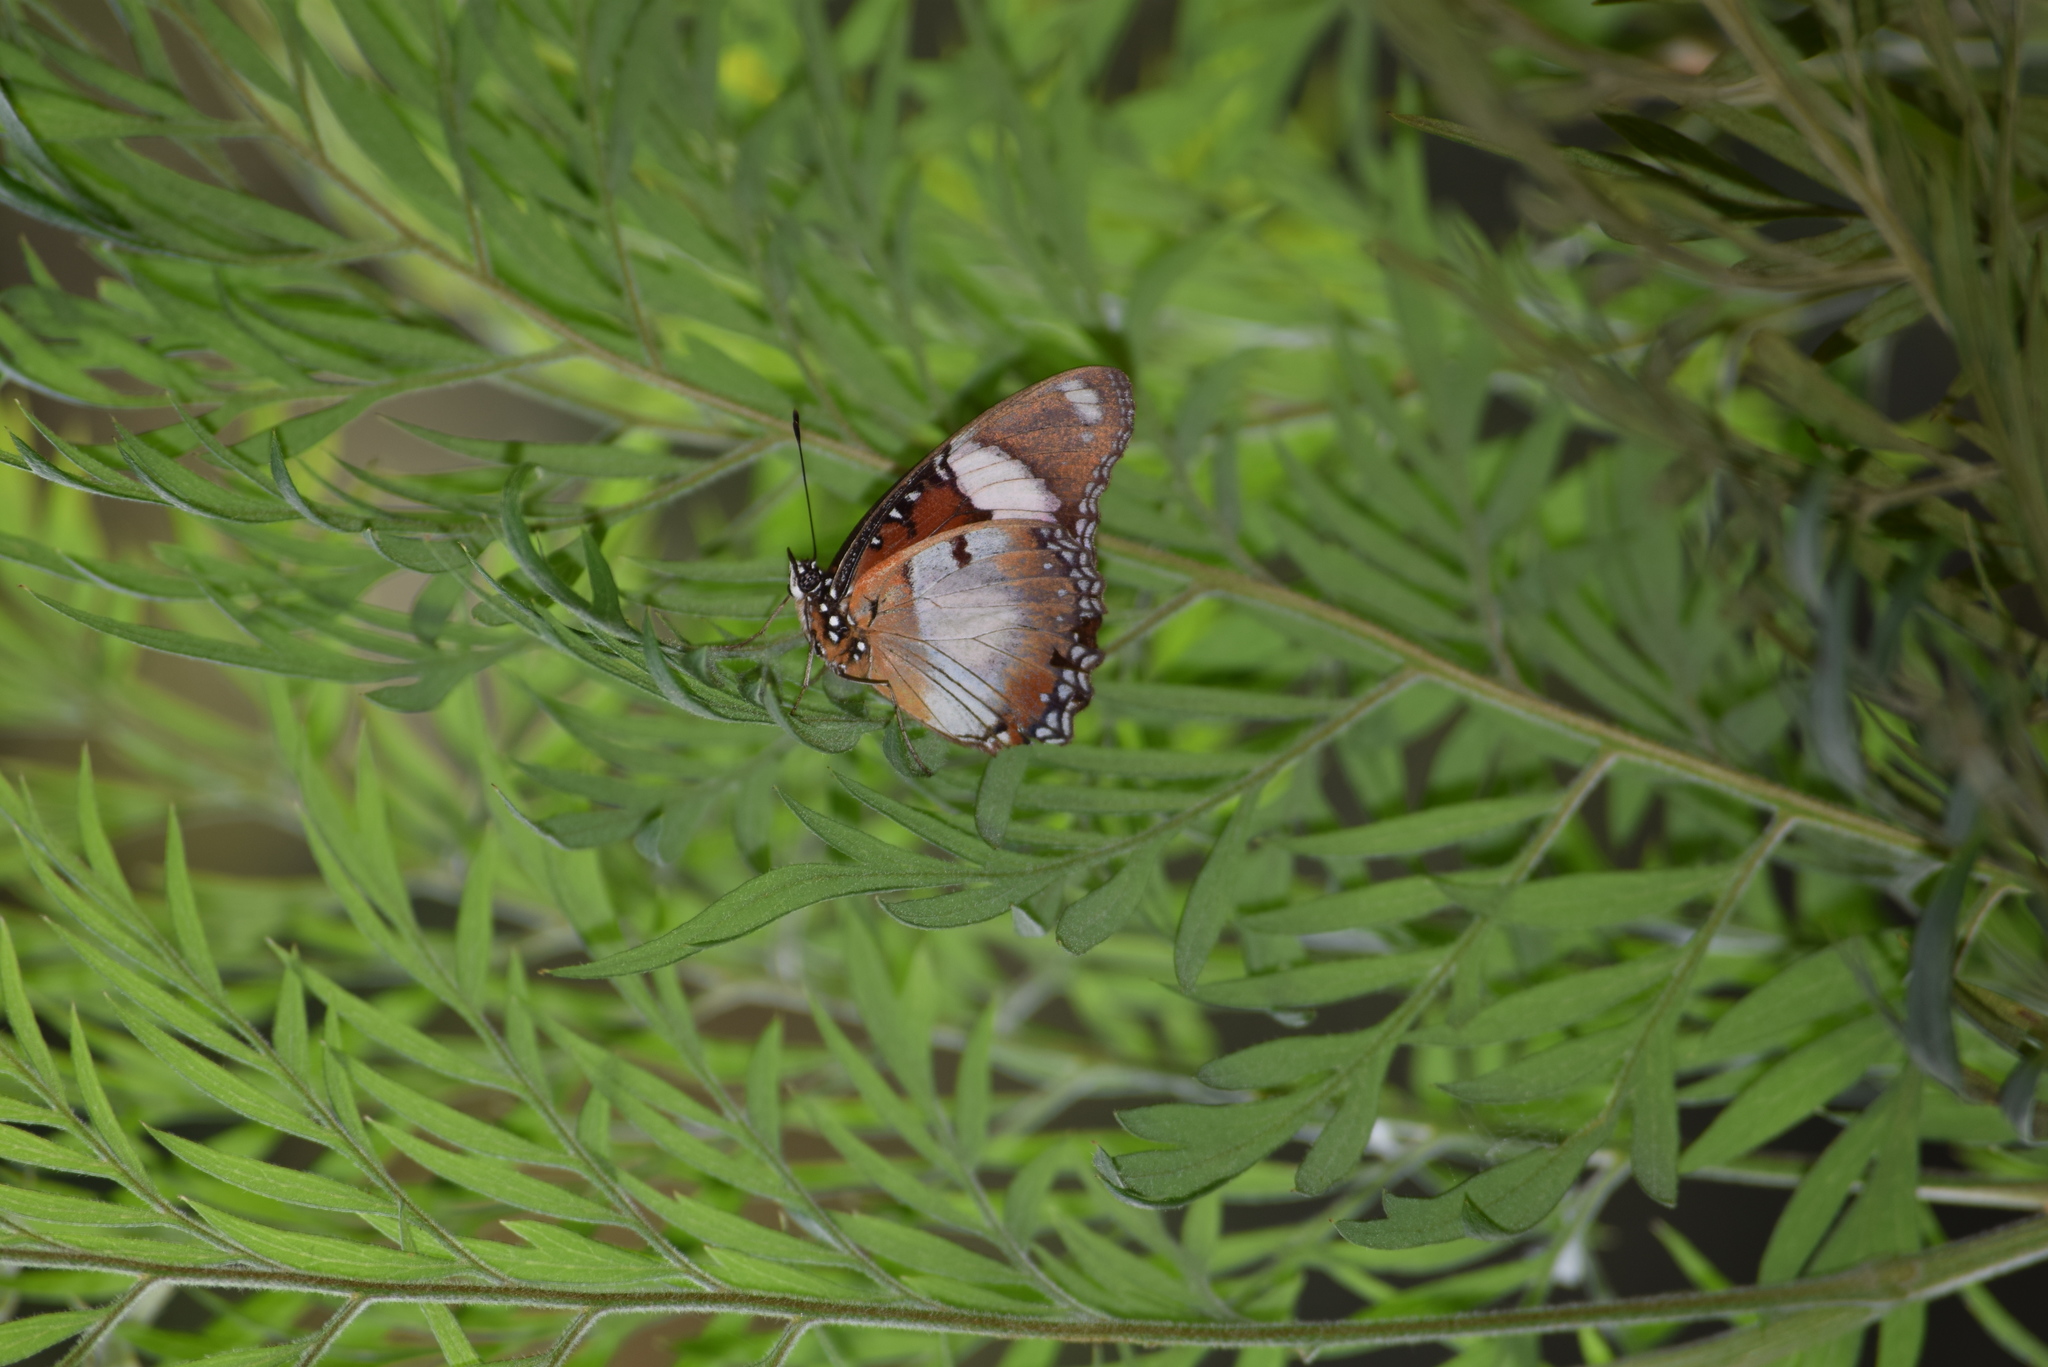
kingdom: Animalia
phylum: Arthropoda
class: Insecta
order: Lepidoptera
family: Nymphalidae
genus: Hypolimnas
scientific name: Hypolimnas misippus
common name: False plain tiger
